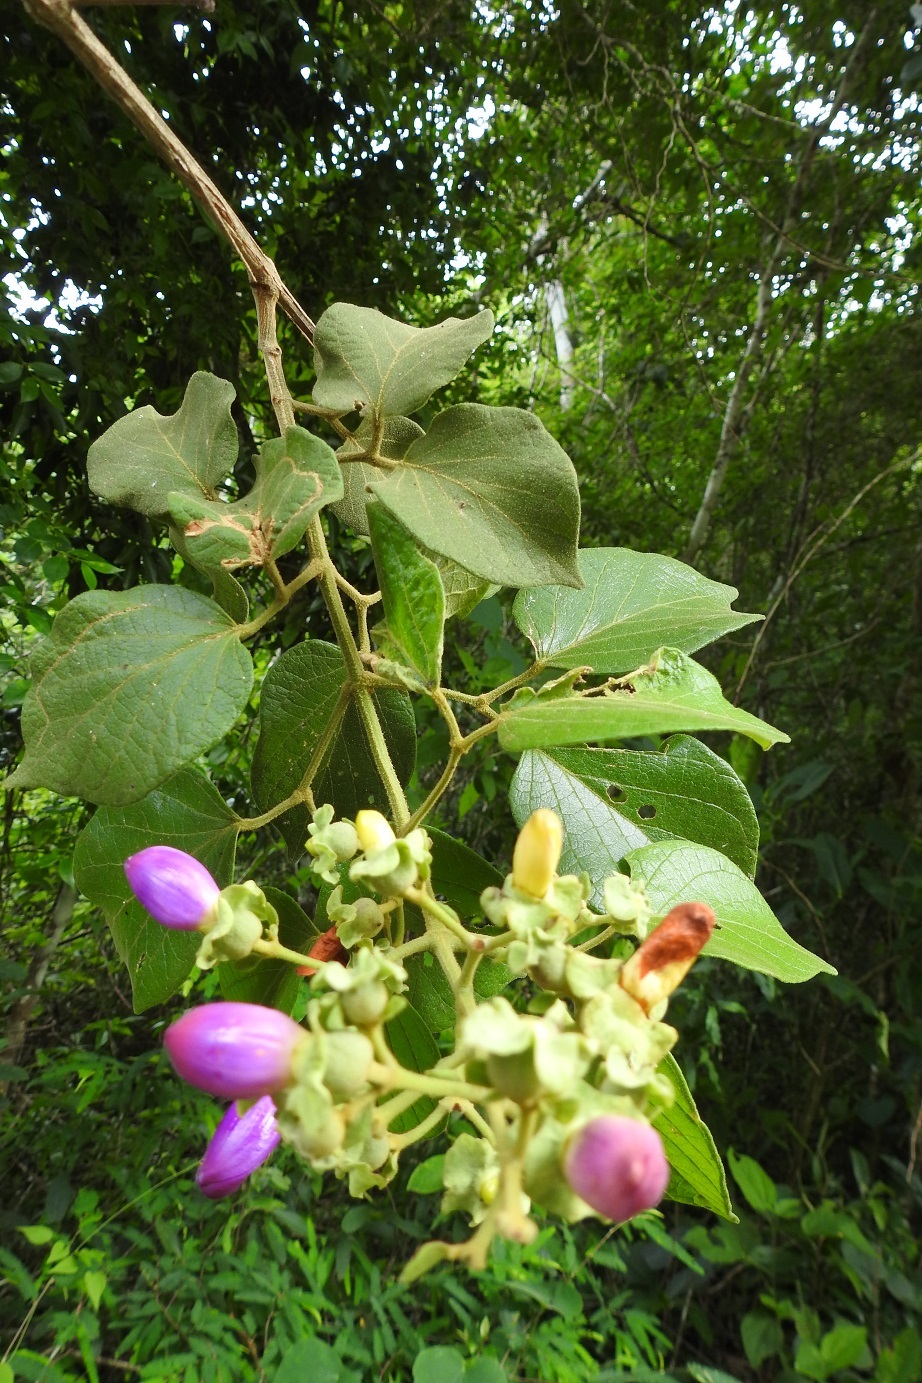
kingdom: Plantae
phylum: Tracheophyta
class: Magnoliopsida
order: Lamiales
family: Bignoniaceae
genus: Amphilophium
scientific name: Amphilophium paniculatum
